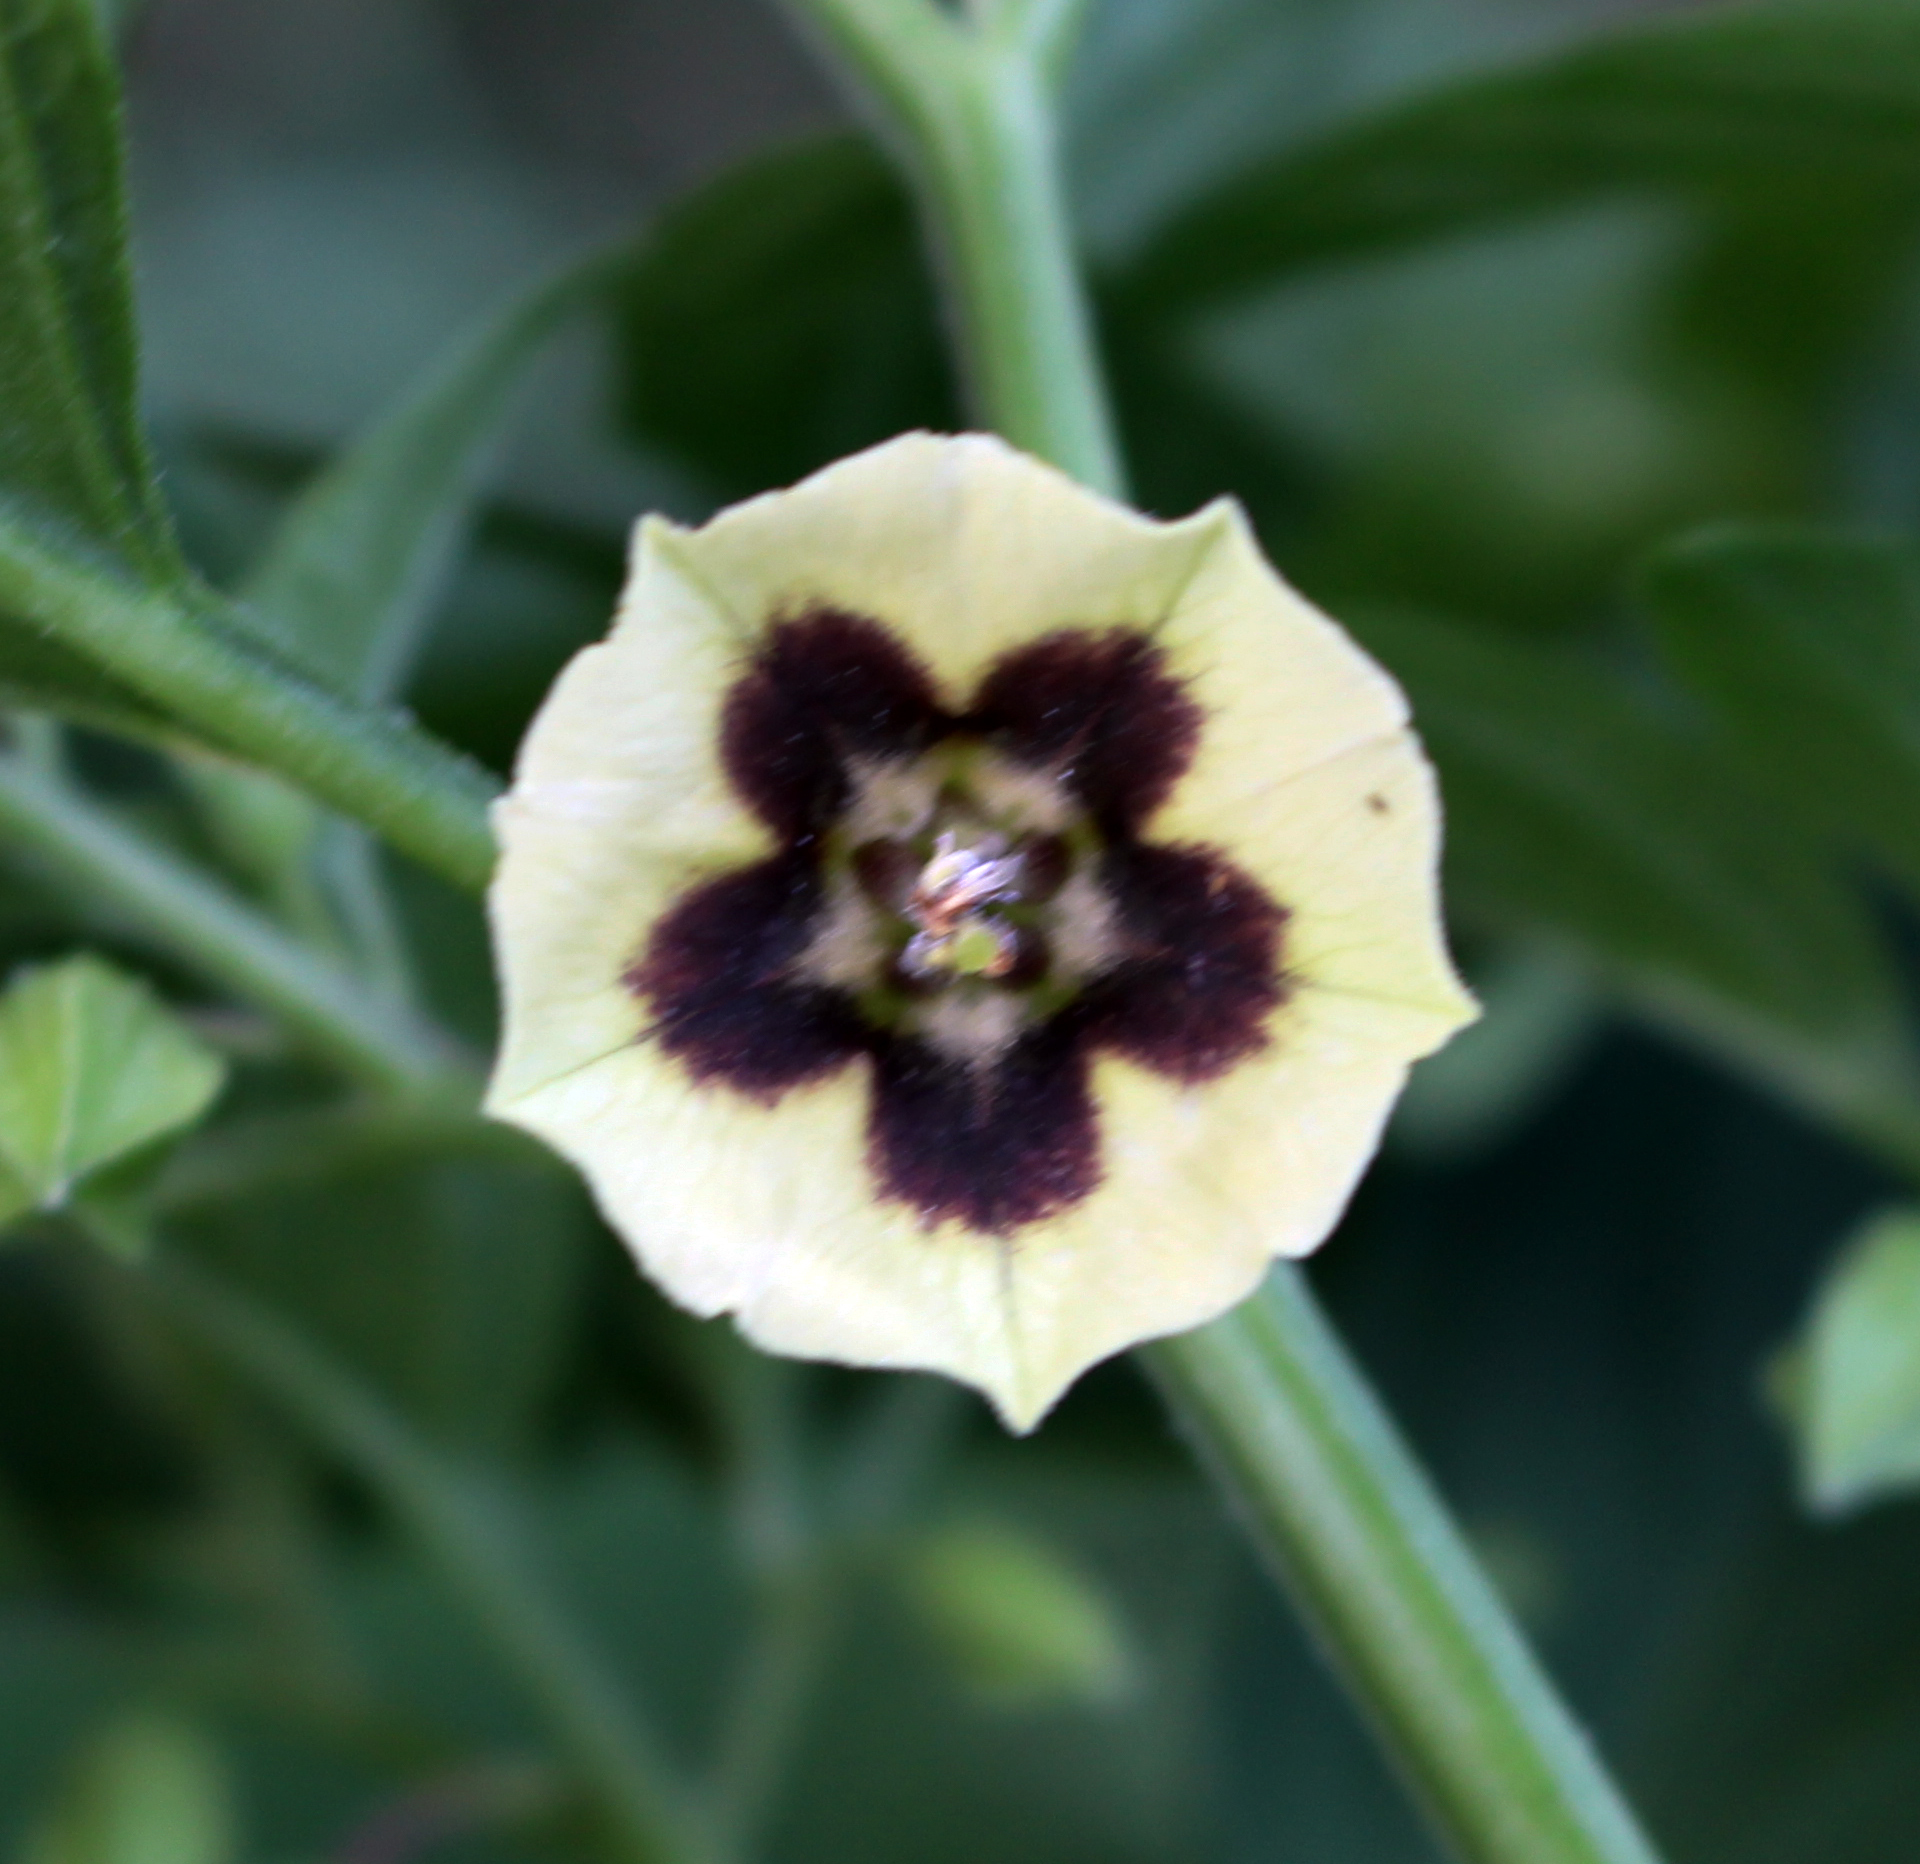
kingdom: Plantae
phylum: Tracheophyta
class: Magnoliopsida
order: Solanales
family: Solanaceae
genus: Physalis
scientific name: Physalis longifolia
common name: Common ground-cherry
